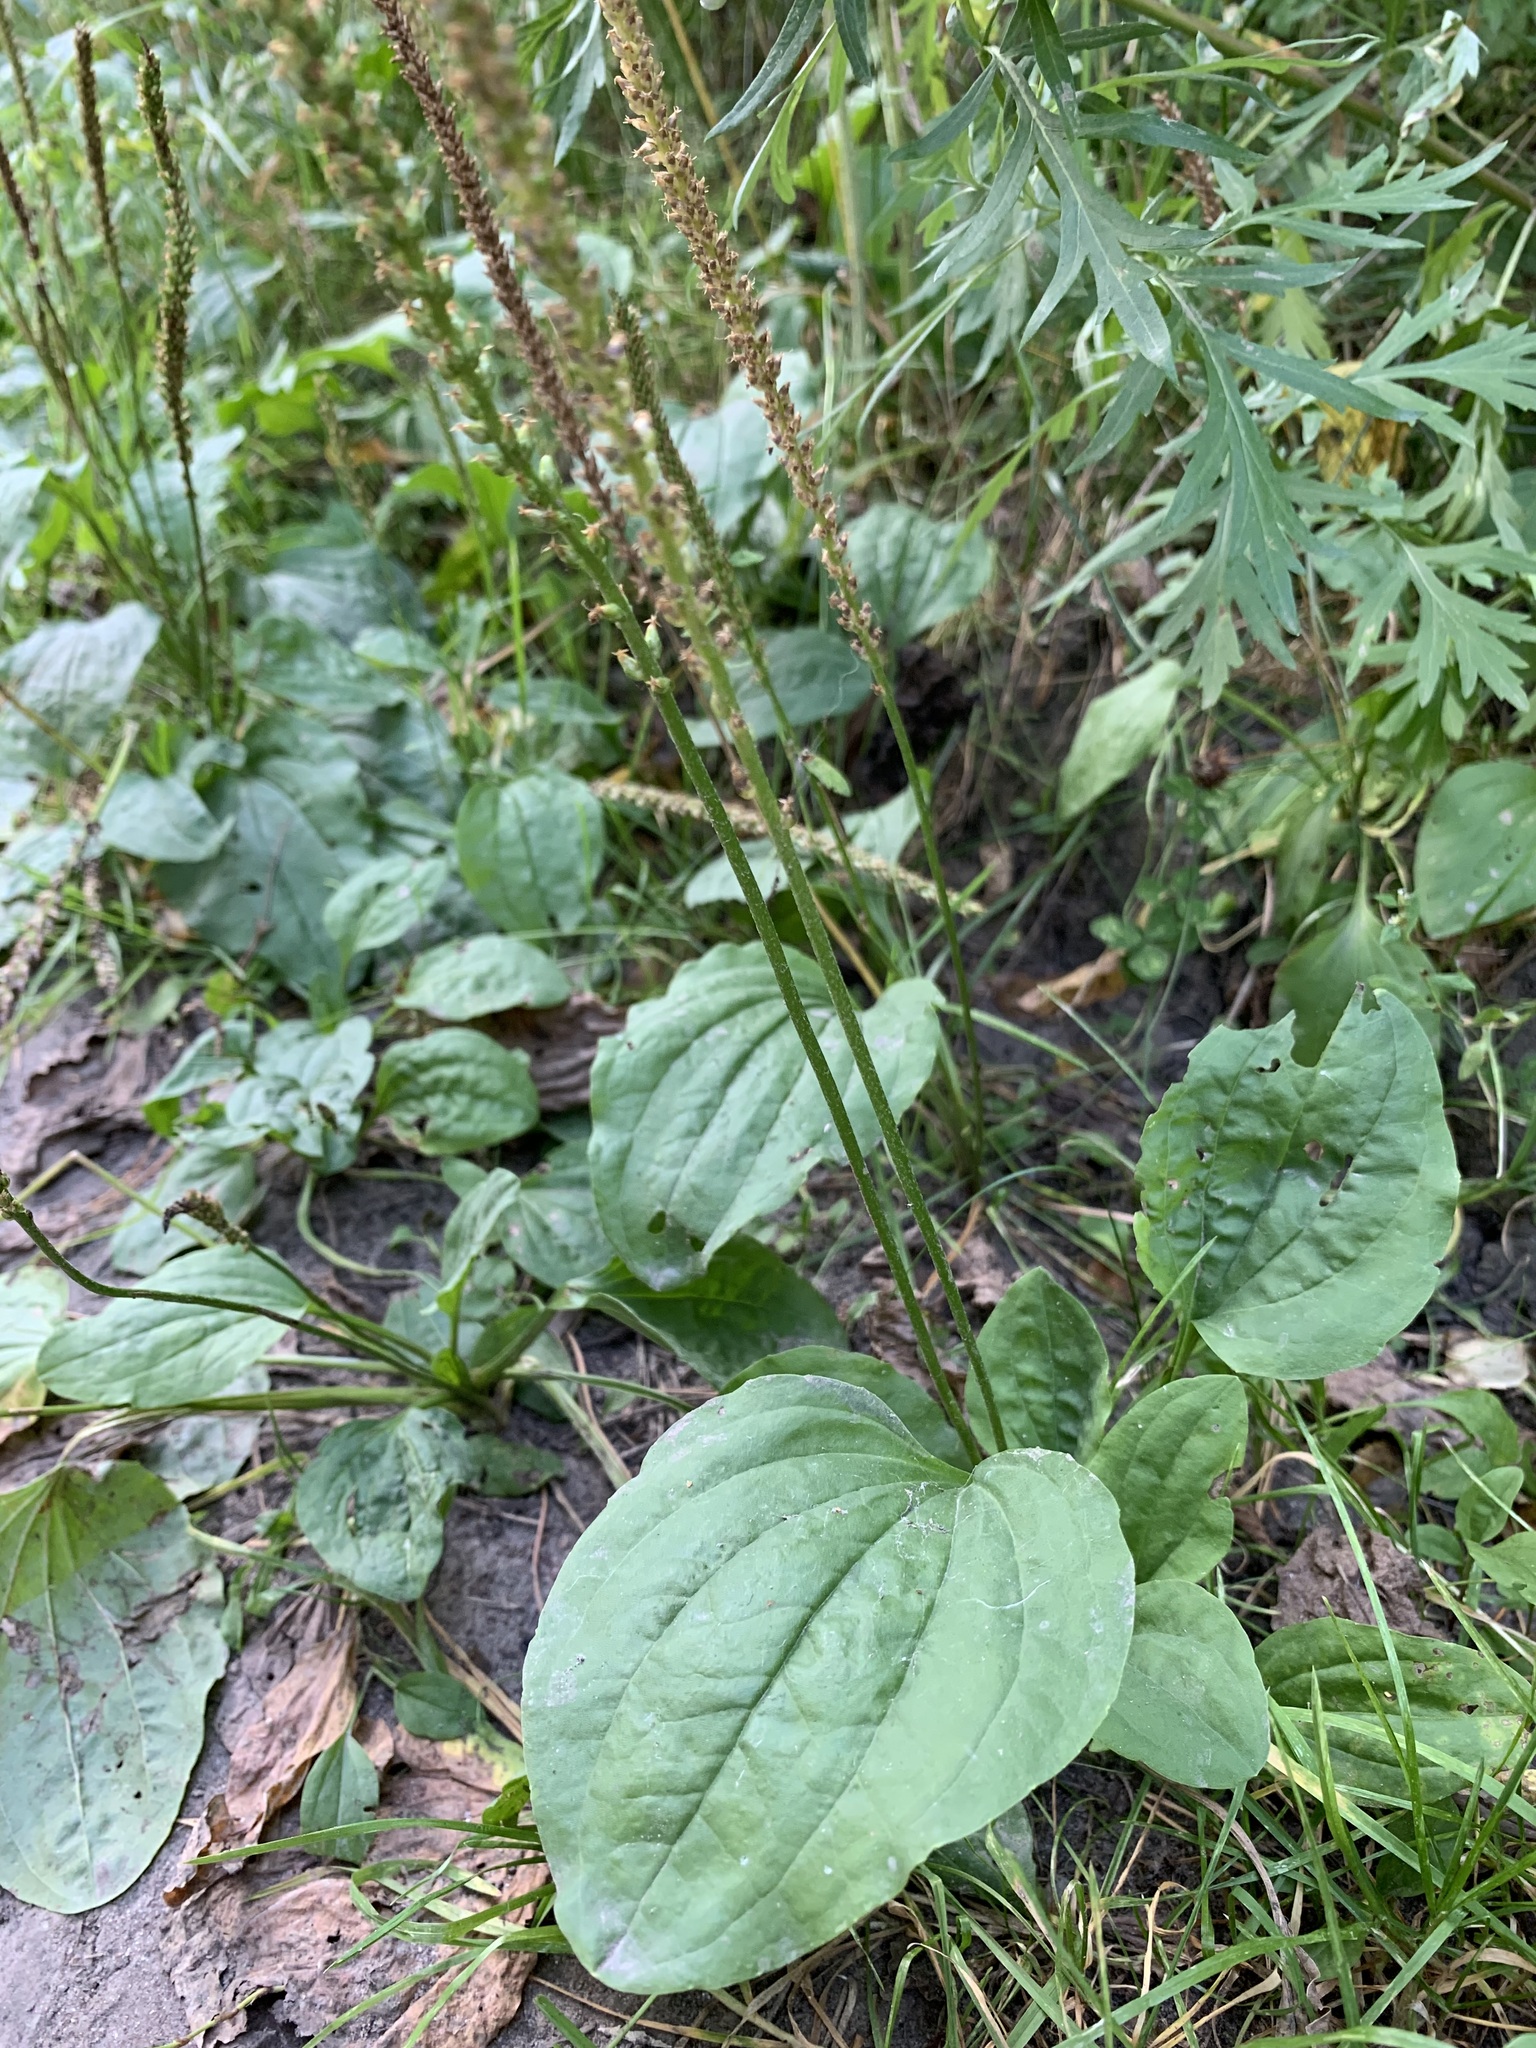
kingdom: Plantae
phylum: Tracheophyta
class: Magnoliopsida
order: Lamiales
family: Plantaginaceae
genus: Plantago
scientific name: Plantago major
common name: Common plantain
